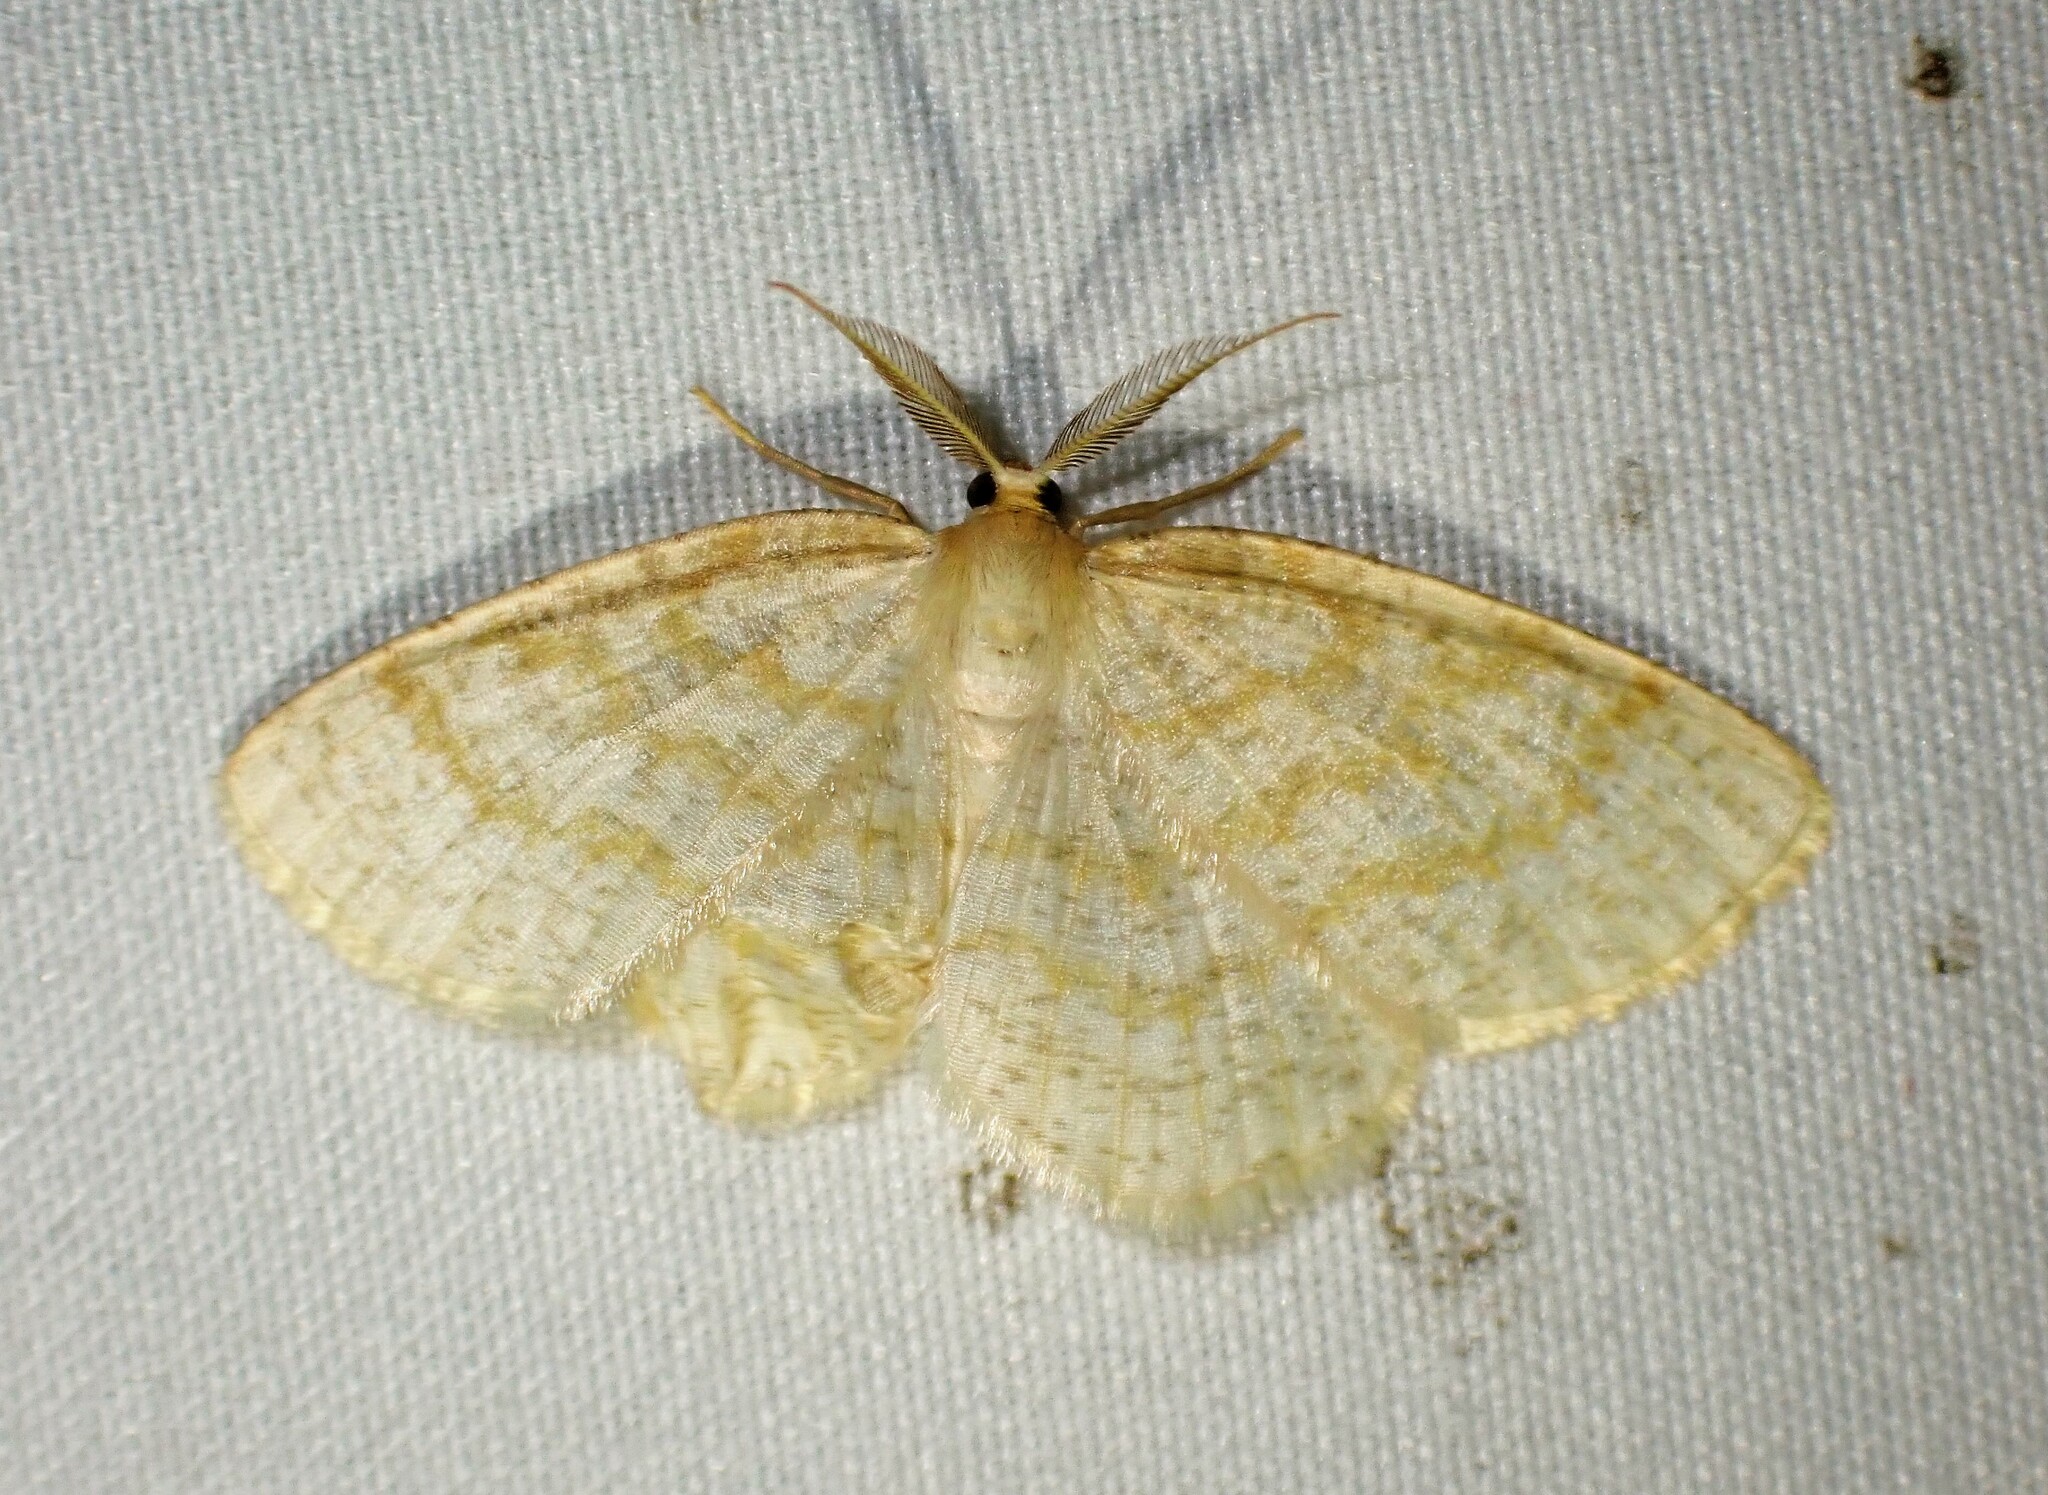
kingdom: Animalia
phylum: Arthropoda
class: Insecta
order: Lepidoptera
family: Geometridae
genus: Cabera
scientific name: Cabera erythemaria
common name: Yellow-dusted cream moth
